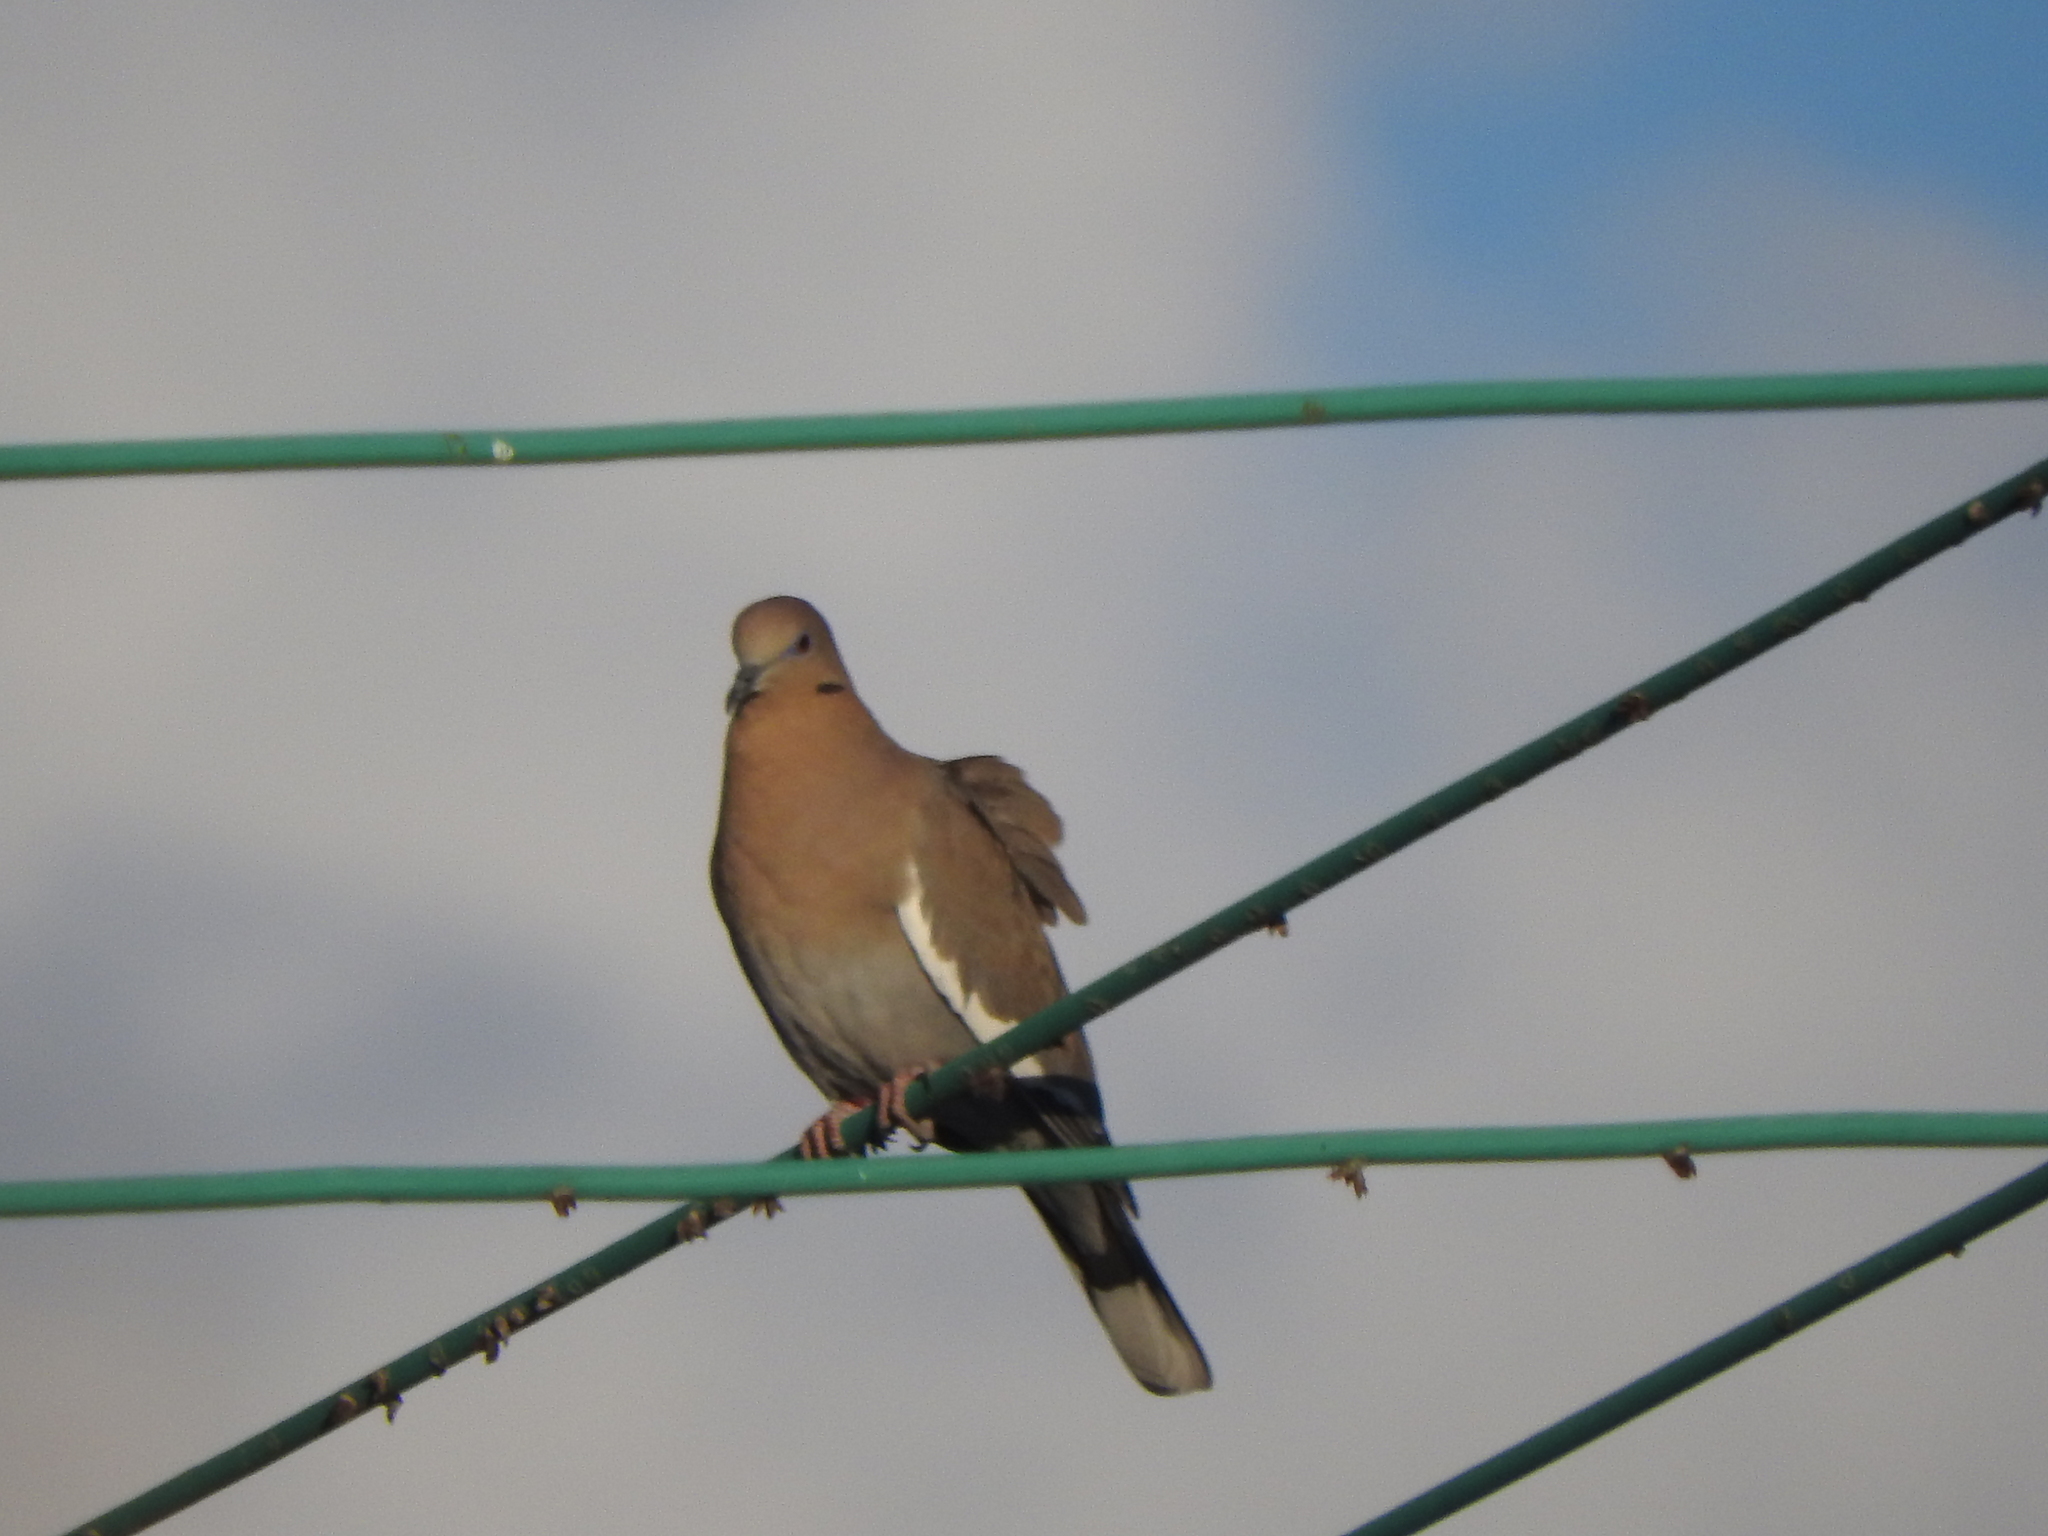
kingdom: Animalia
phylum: Chordata
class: Aves
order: Columbiformes
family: Columbidae
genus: Zenaida
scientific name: Zenaida asiatica
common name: White-winged dove
